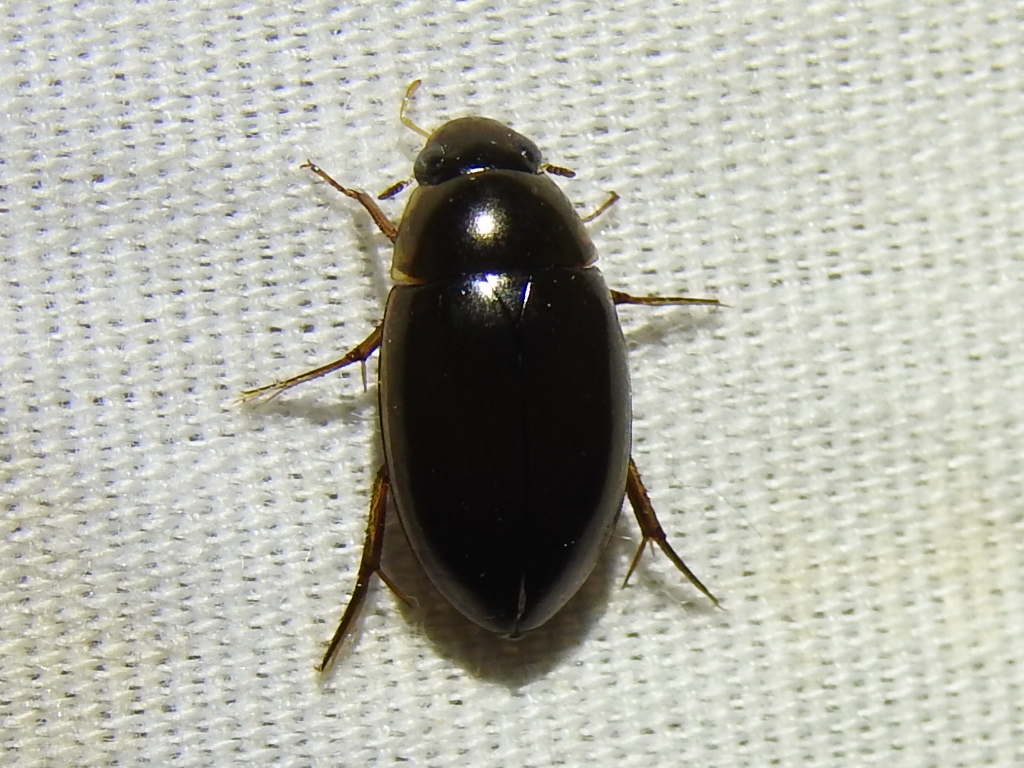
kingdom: Animalia
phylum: Arthropoda
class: Insecta
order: Coleoptera
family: Hydrophilidae
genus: Tropisternus
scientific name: Tropisternus lateralis
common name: Lateral-banded water scavenger beetle
